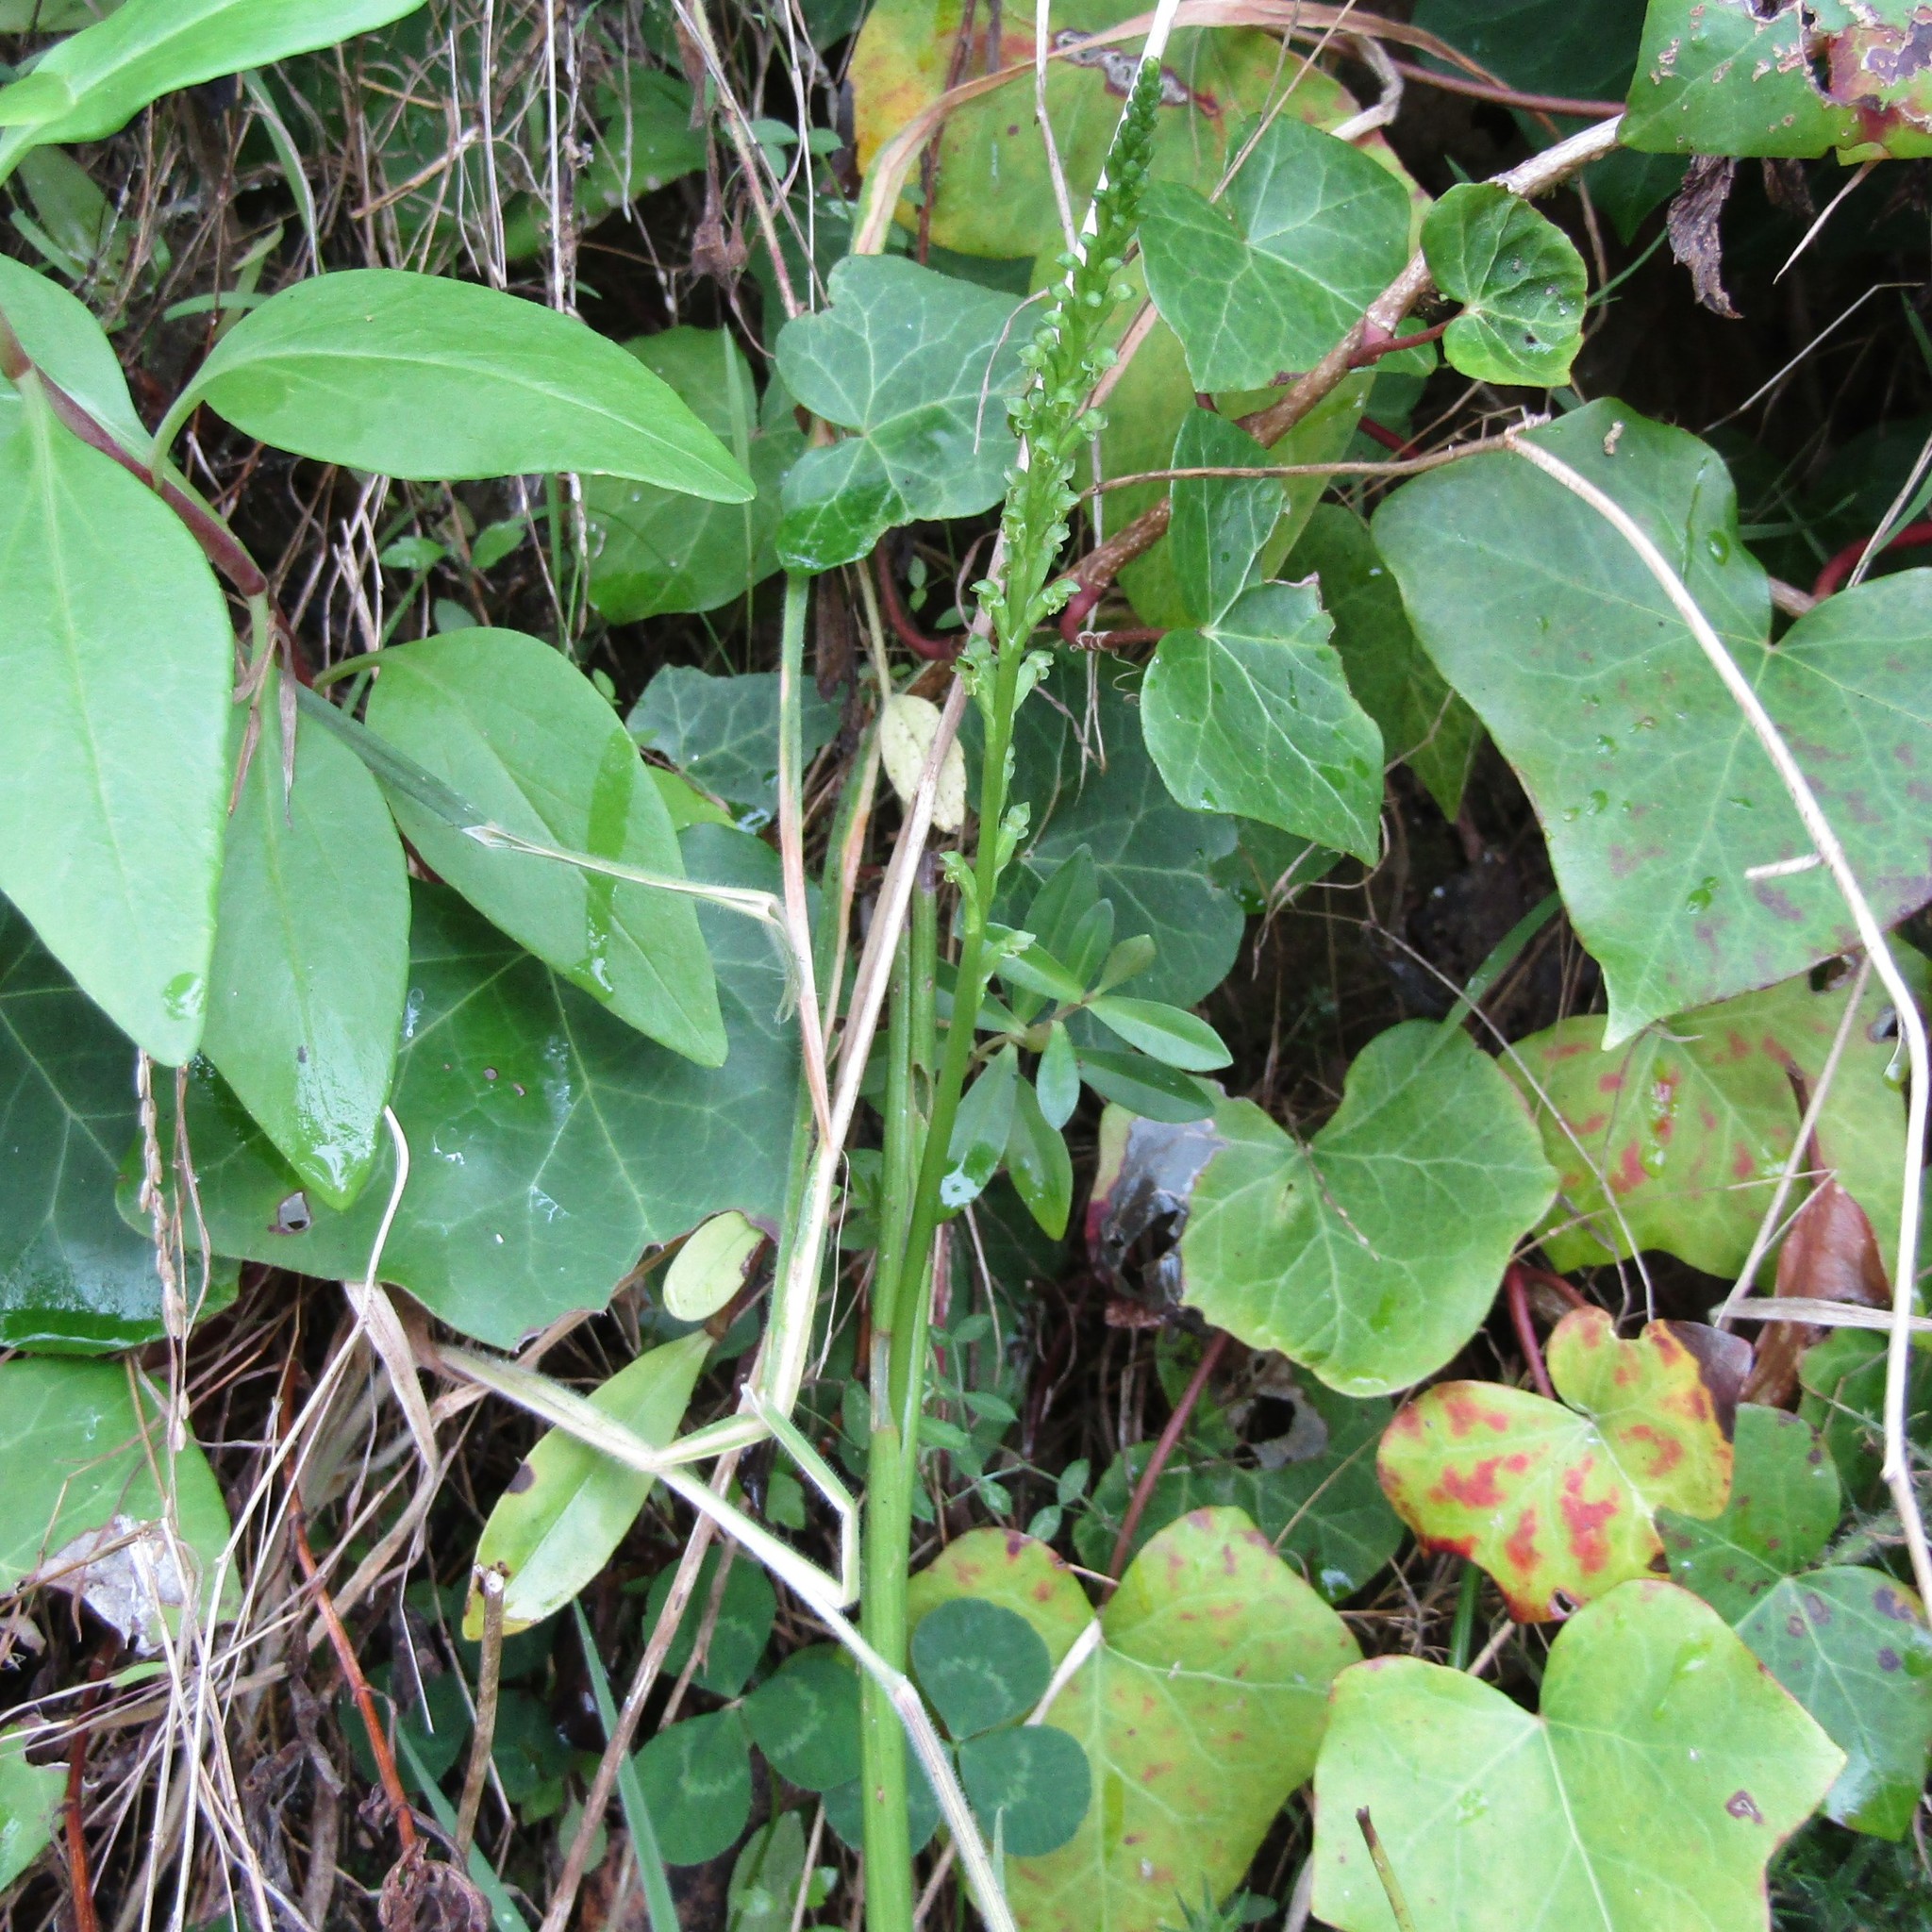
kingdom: Plantae
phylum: Tracheophyta
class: Liliopsida
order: Asparagales
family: Orchidaceae
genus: Microtis
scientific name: Microtis unifolia
